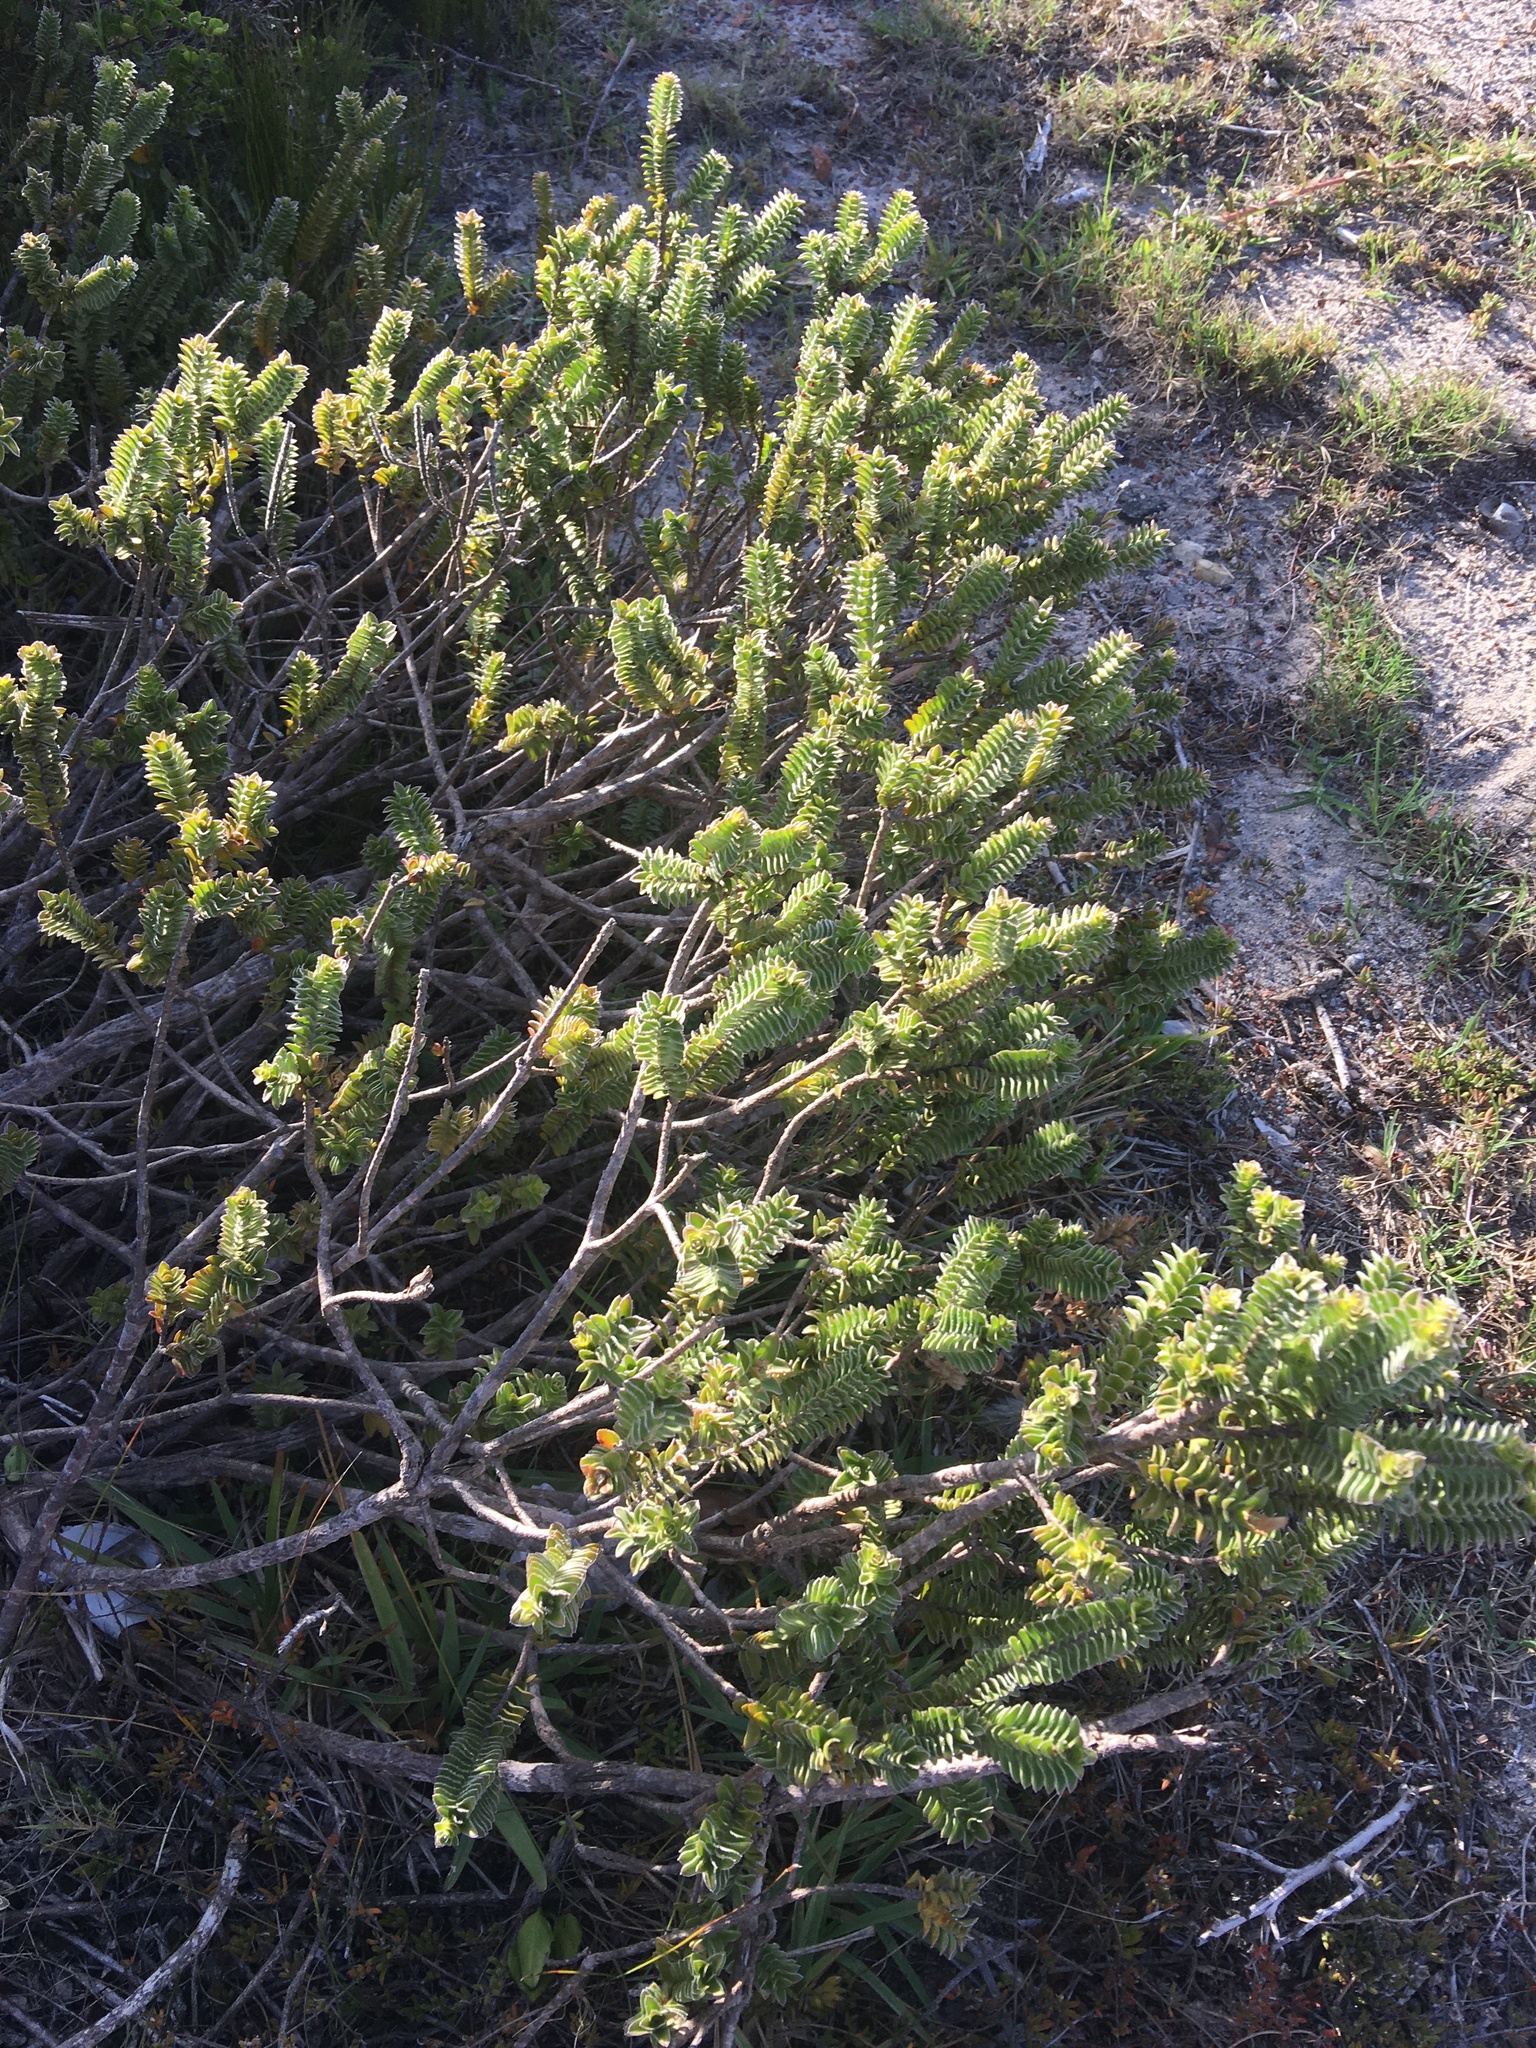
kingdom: Plantae
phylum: Tracheophyta
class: Magnoliopsida
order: Malvales
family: Thymelaeaceae
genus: Struthiola
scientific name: Struthiola argentea
